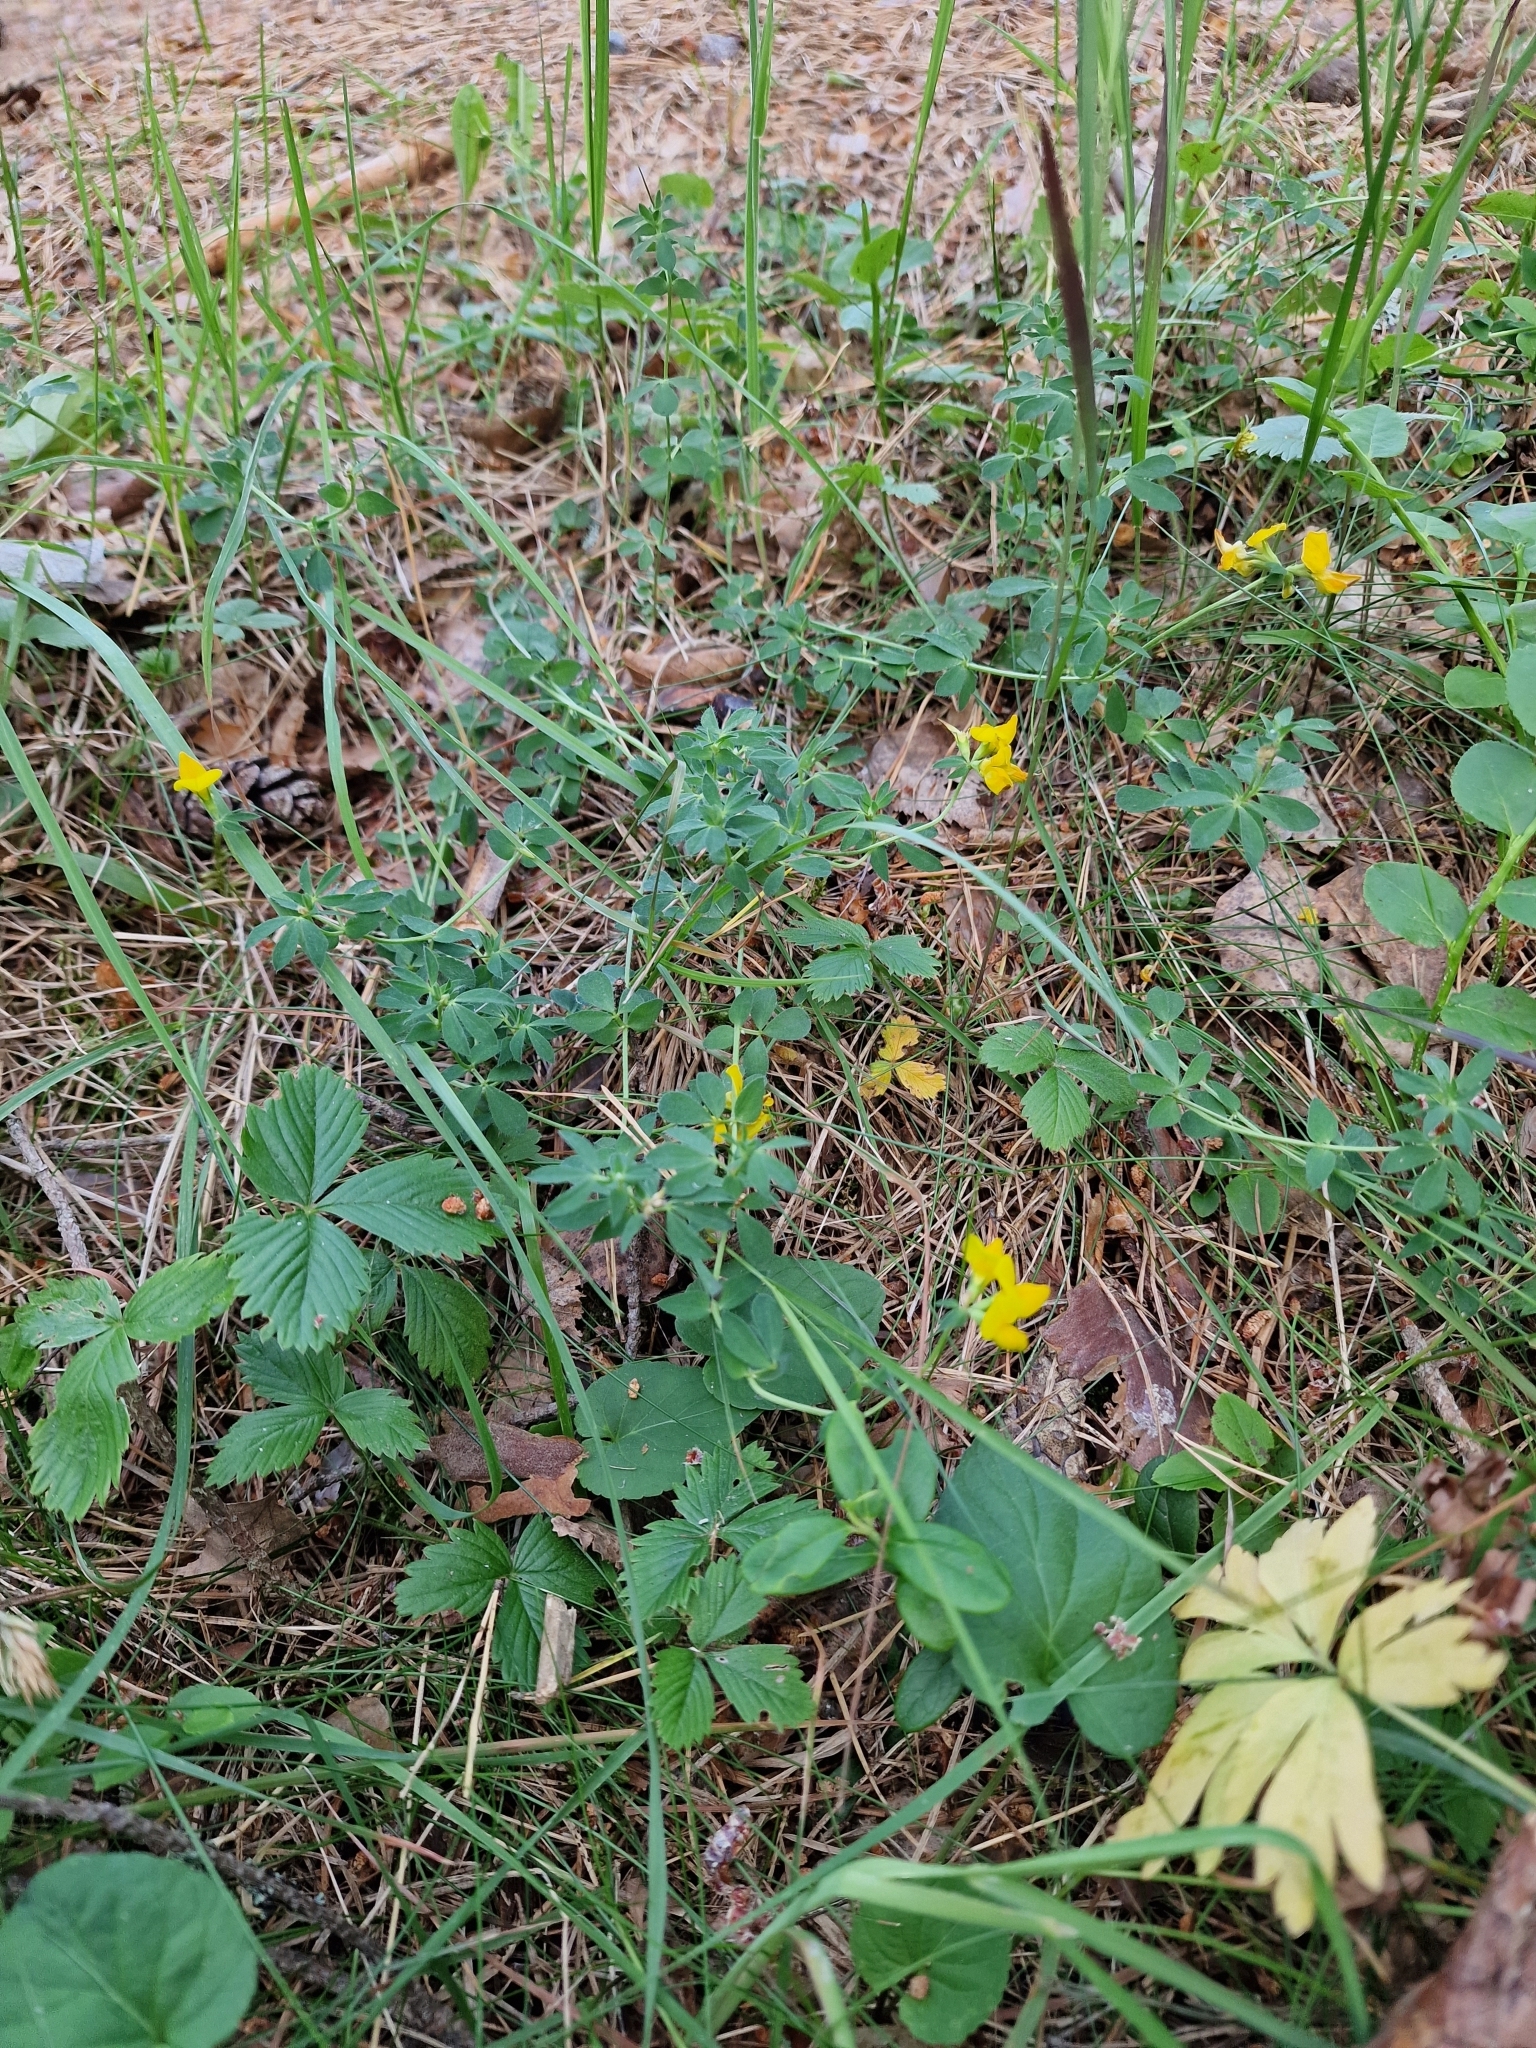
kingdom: Plantae
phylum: Tracheophyta
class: Magnoliopsida
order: Fabales
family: Fabaceae
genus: Lotus
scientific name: Lotus corniculatus
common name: Common bird's-foot-trefoil
